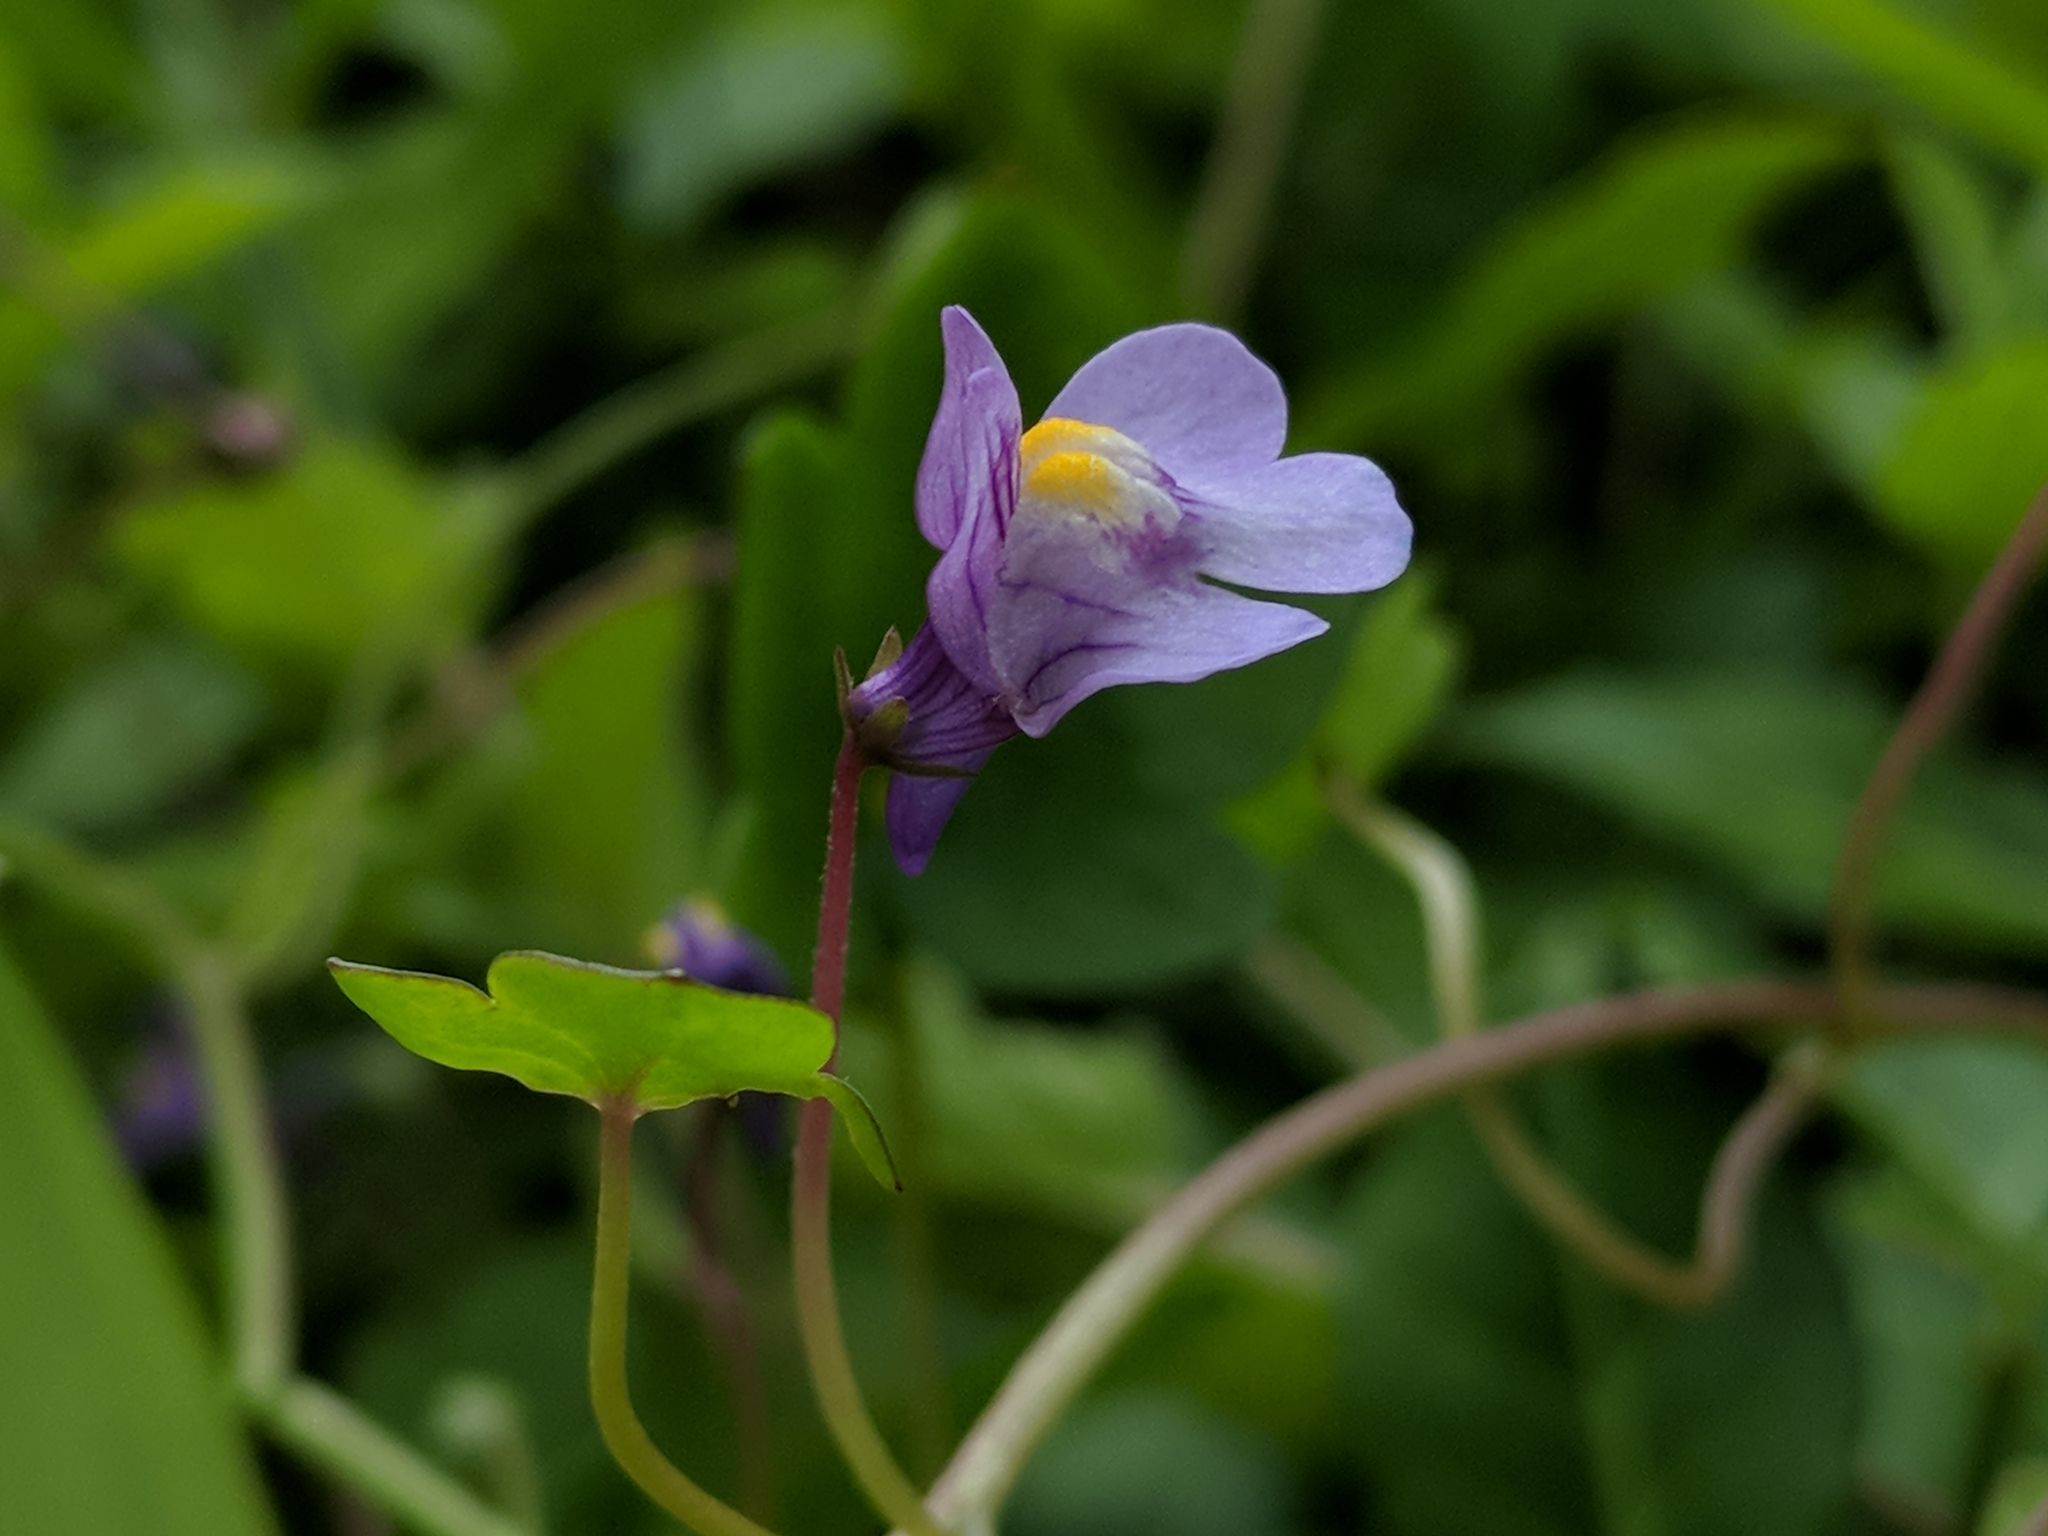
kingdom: Plantae
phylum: Tracheophyta
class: Magnoliopsida
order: Lamiales
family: Plantaginaceae
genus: Cymbalaria
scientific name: Cymbalaria muralis
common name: Ivy-leaved toadflax
